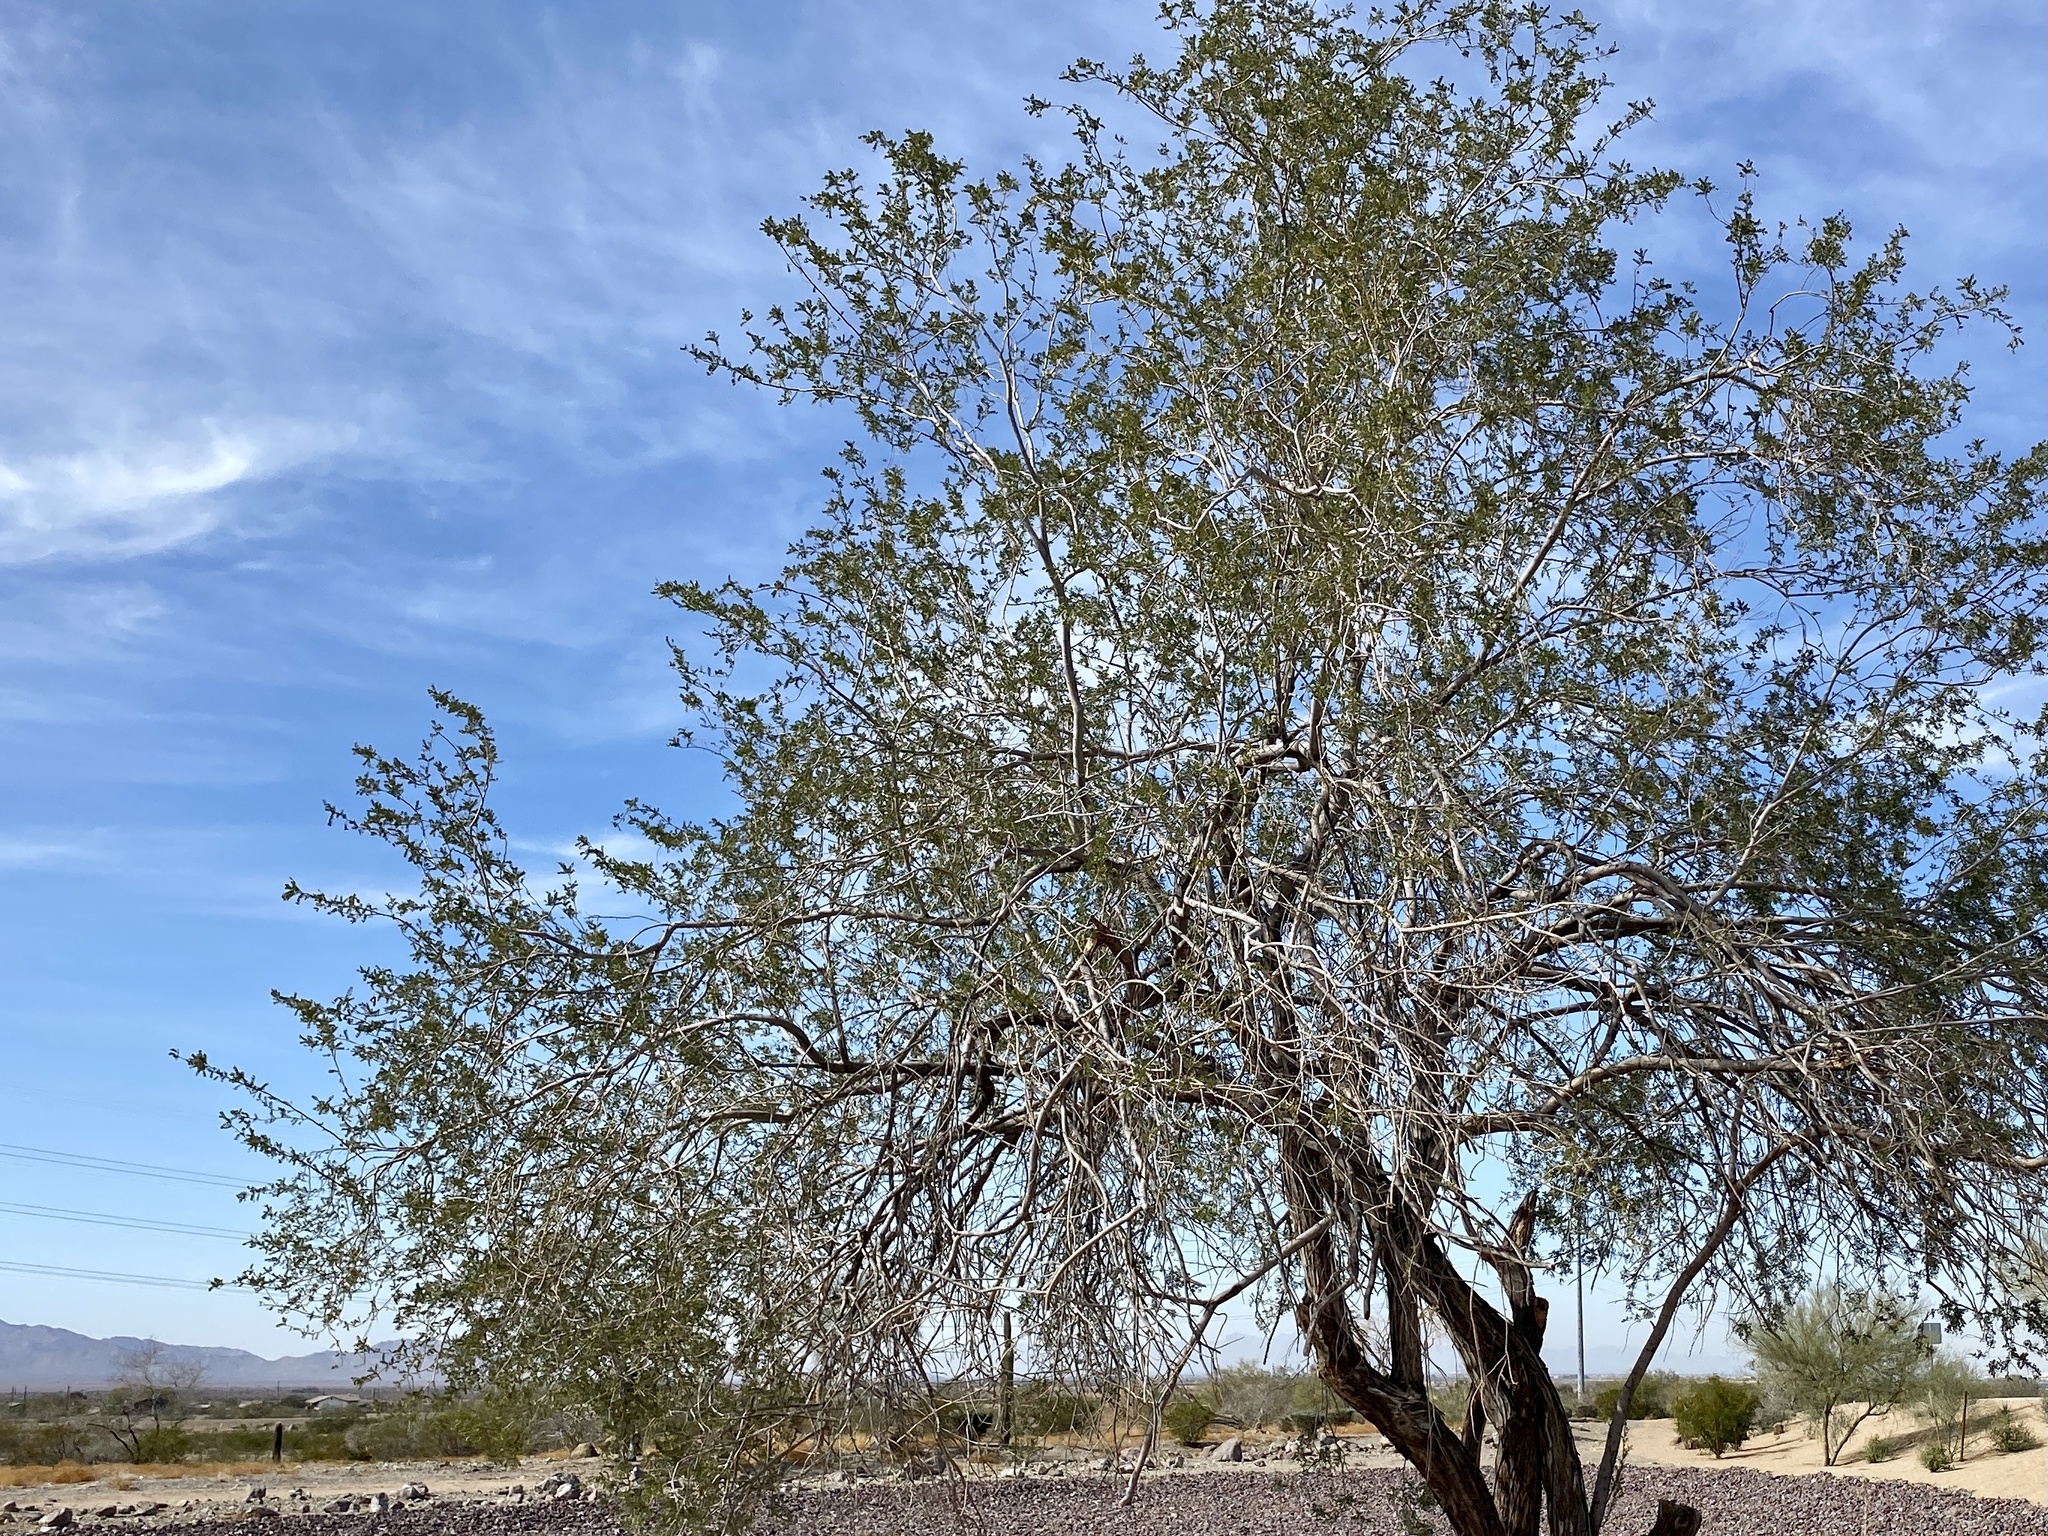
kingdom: Plantae
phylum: Tracheophyta
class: Magnoliopsida
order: Fabales
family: Fabaceae
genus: Olneya
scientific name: Olneya tesota
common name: Desert ironwood
